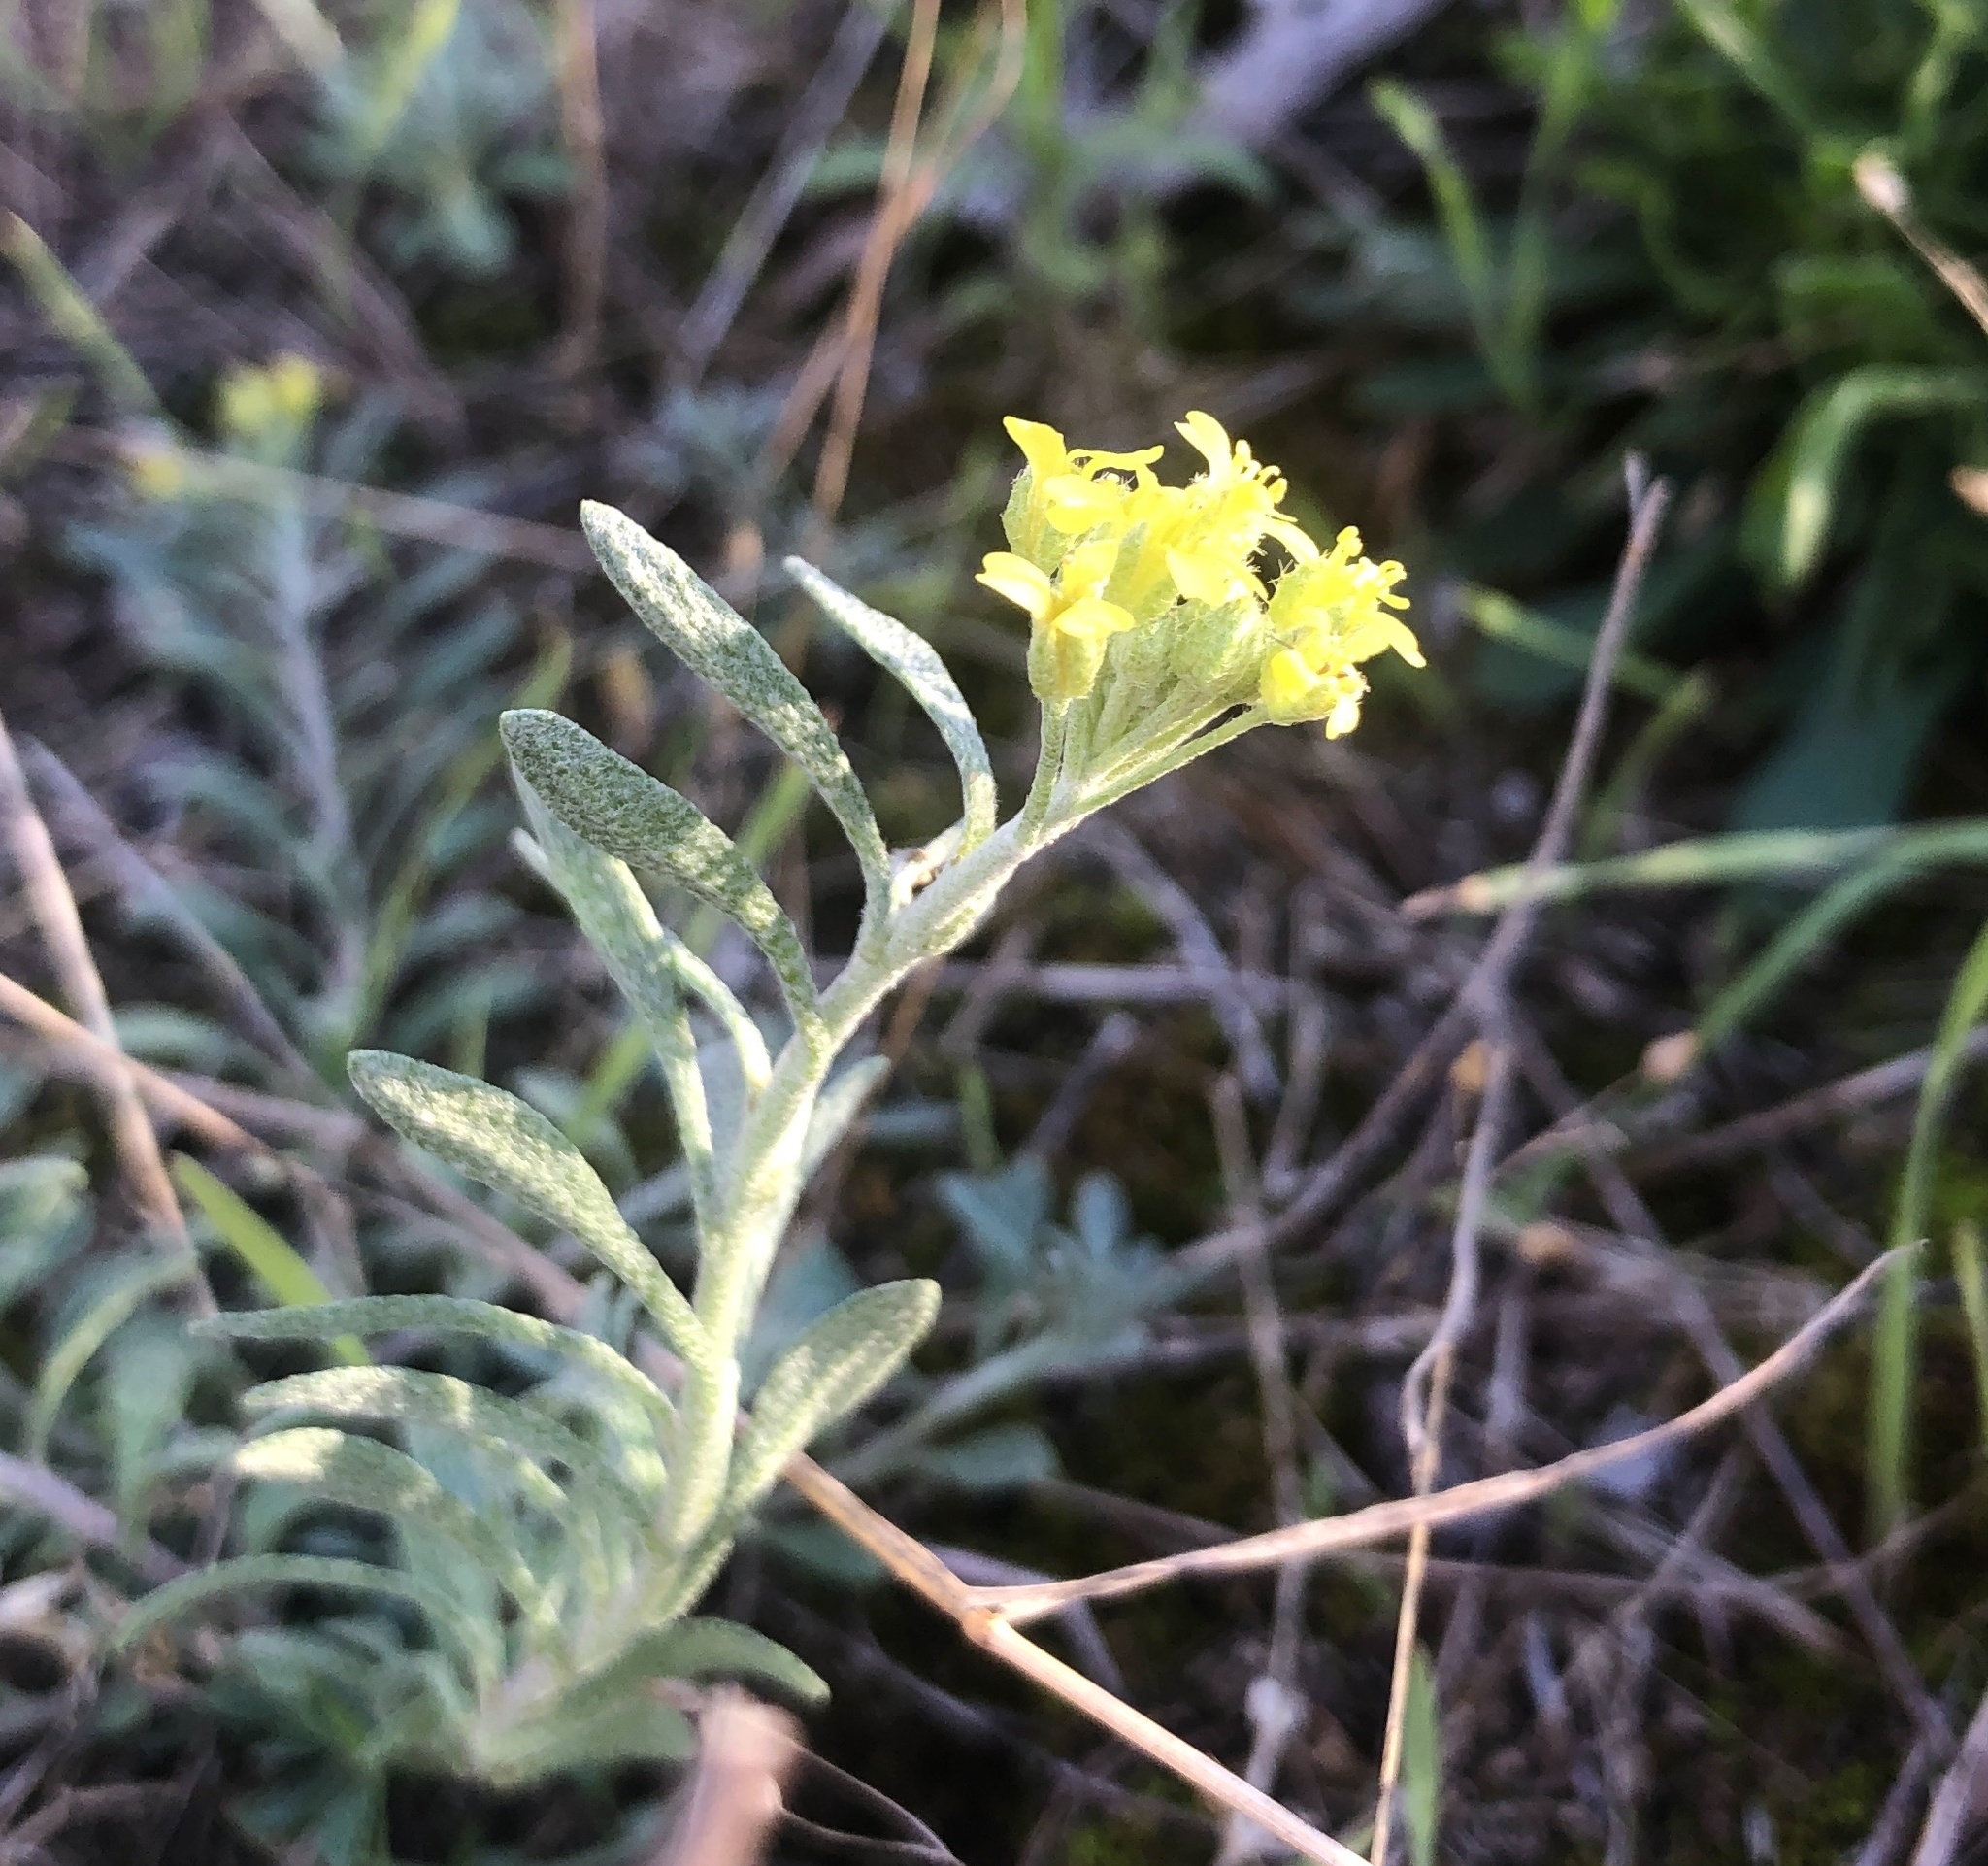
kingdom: Plantae
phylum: Tracheophyta
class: Magnoliopsida
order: Brassicales
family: Brassicaceae
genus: Alyssum
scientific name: Alyssum gmelinii
